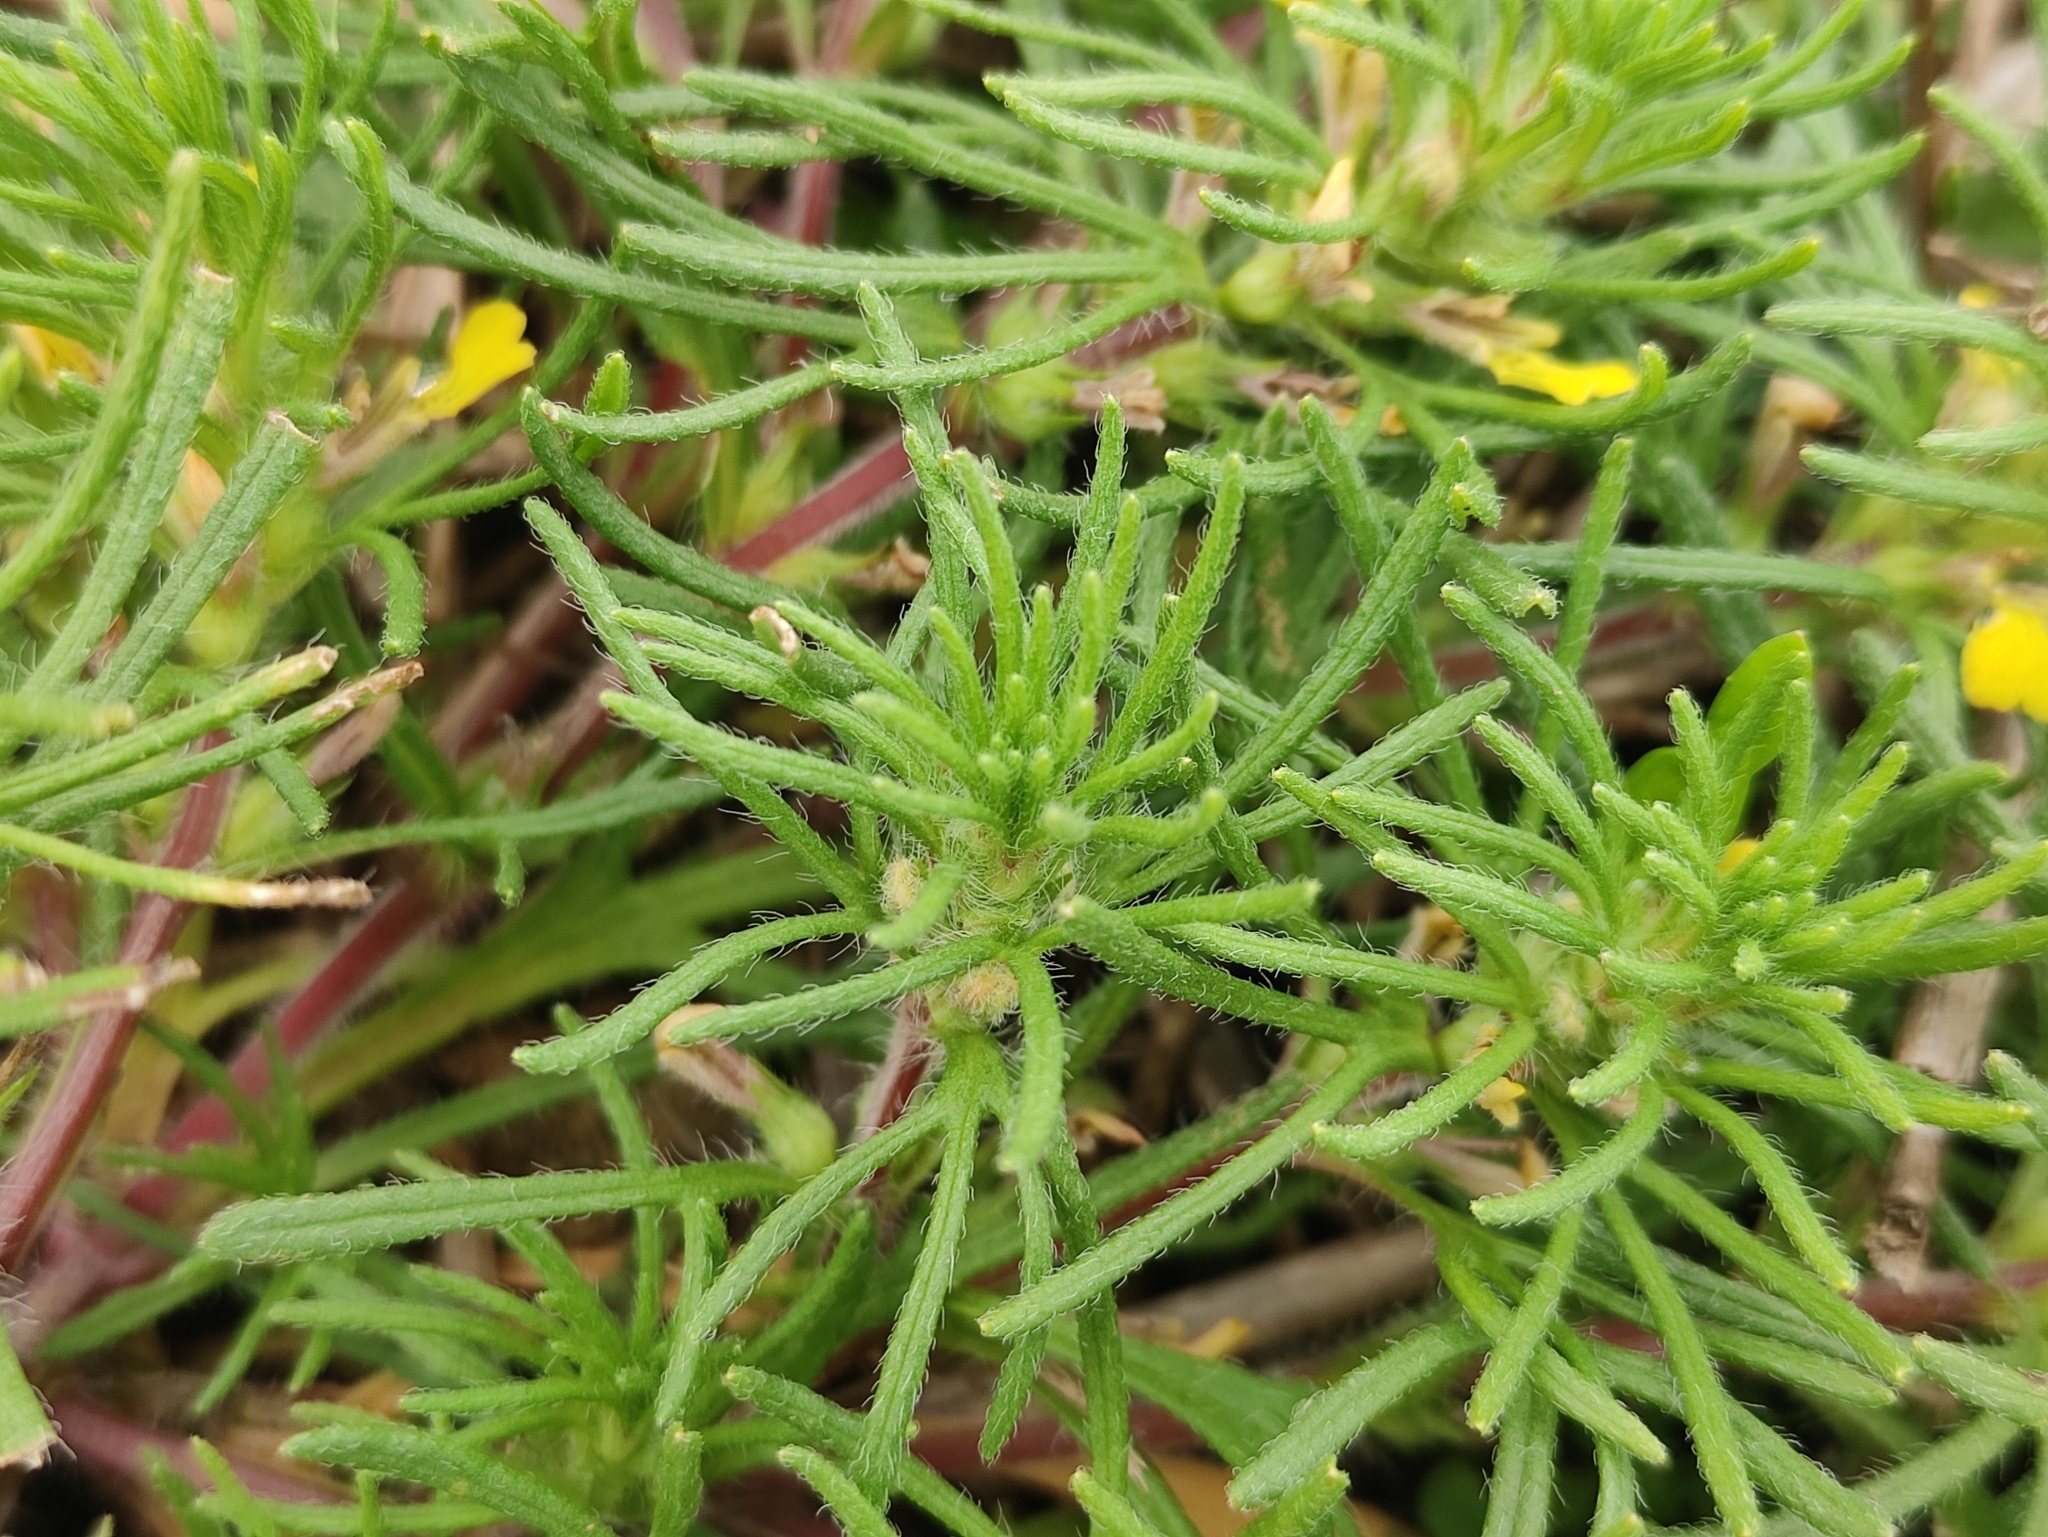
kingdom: Plantae
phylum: Tracheophyta
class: Magnoliopsida
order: Lamiales
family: Lamiaceae
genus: Ajuga
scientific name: Ajuga chamaepitys
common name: Ground-pine
